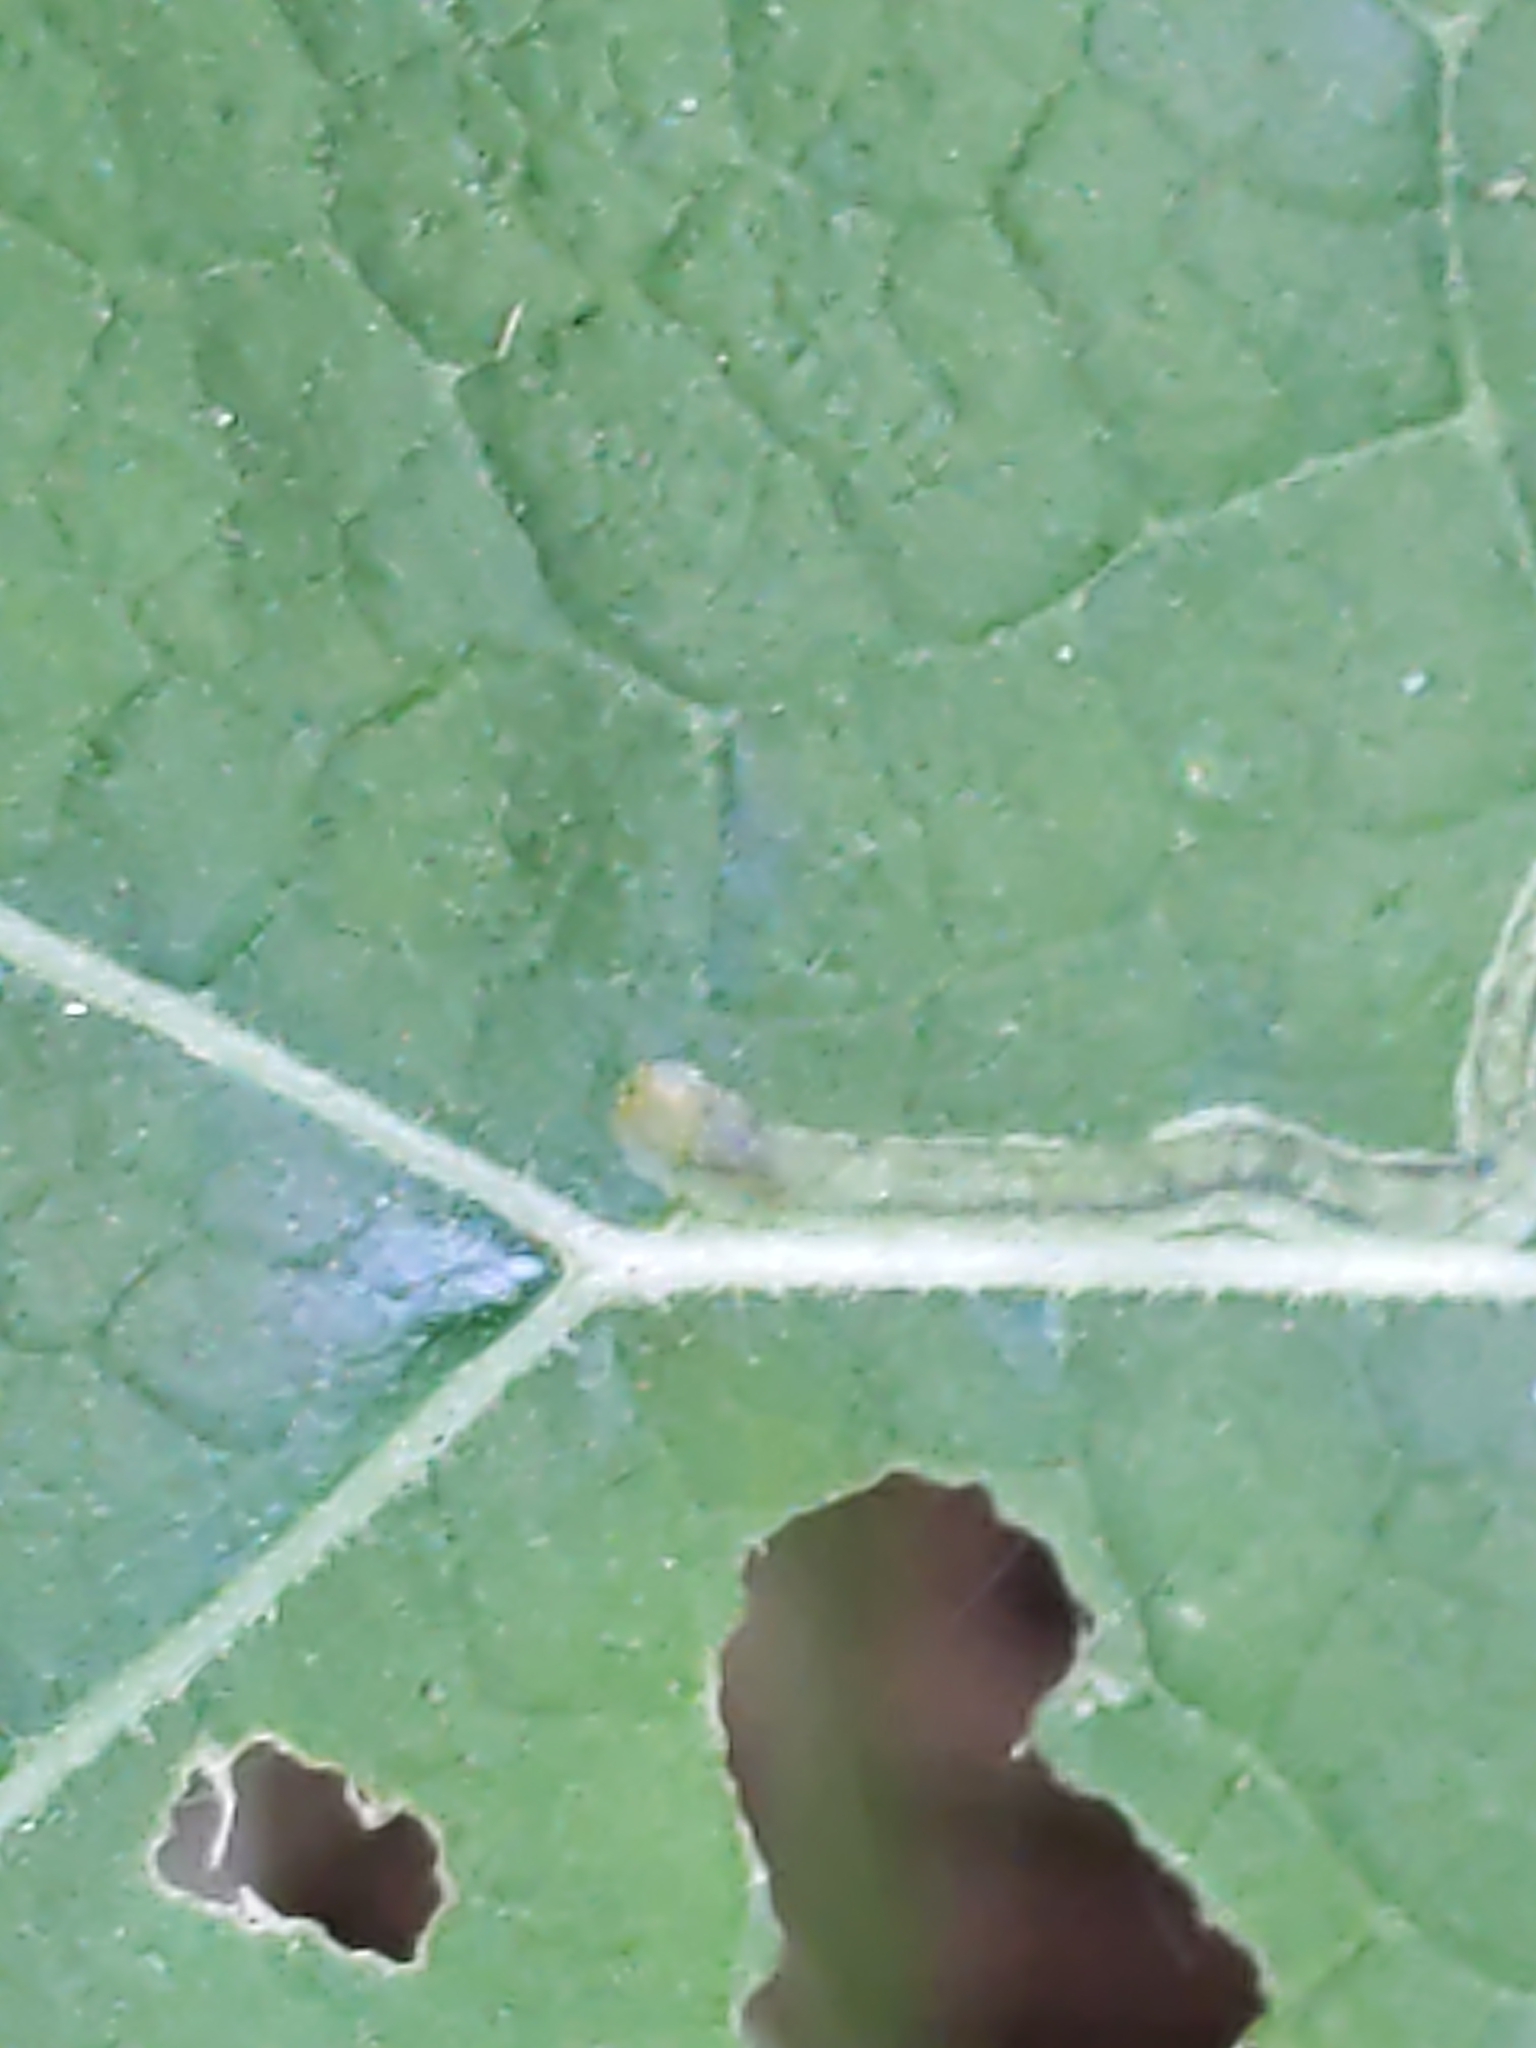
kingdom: Animalia
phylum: Arthropoda
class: Insecta
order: Diptera
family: Agromyzidae
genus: Liriomyza
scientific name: Liriomyza arctii
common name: Burdock leafminer
